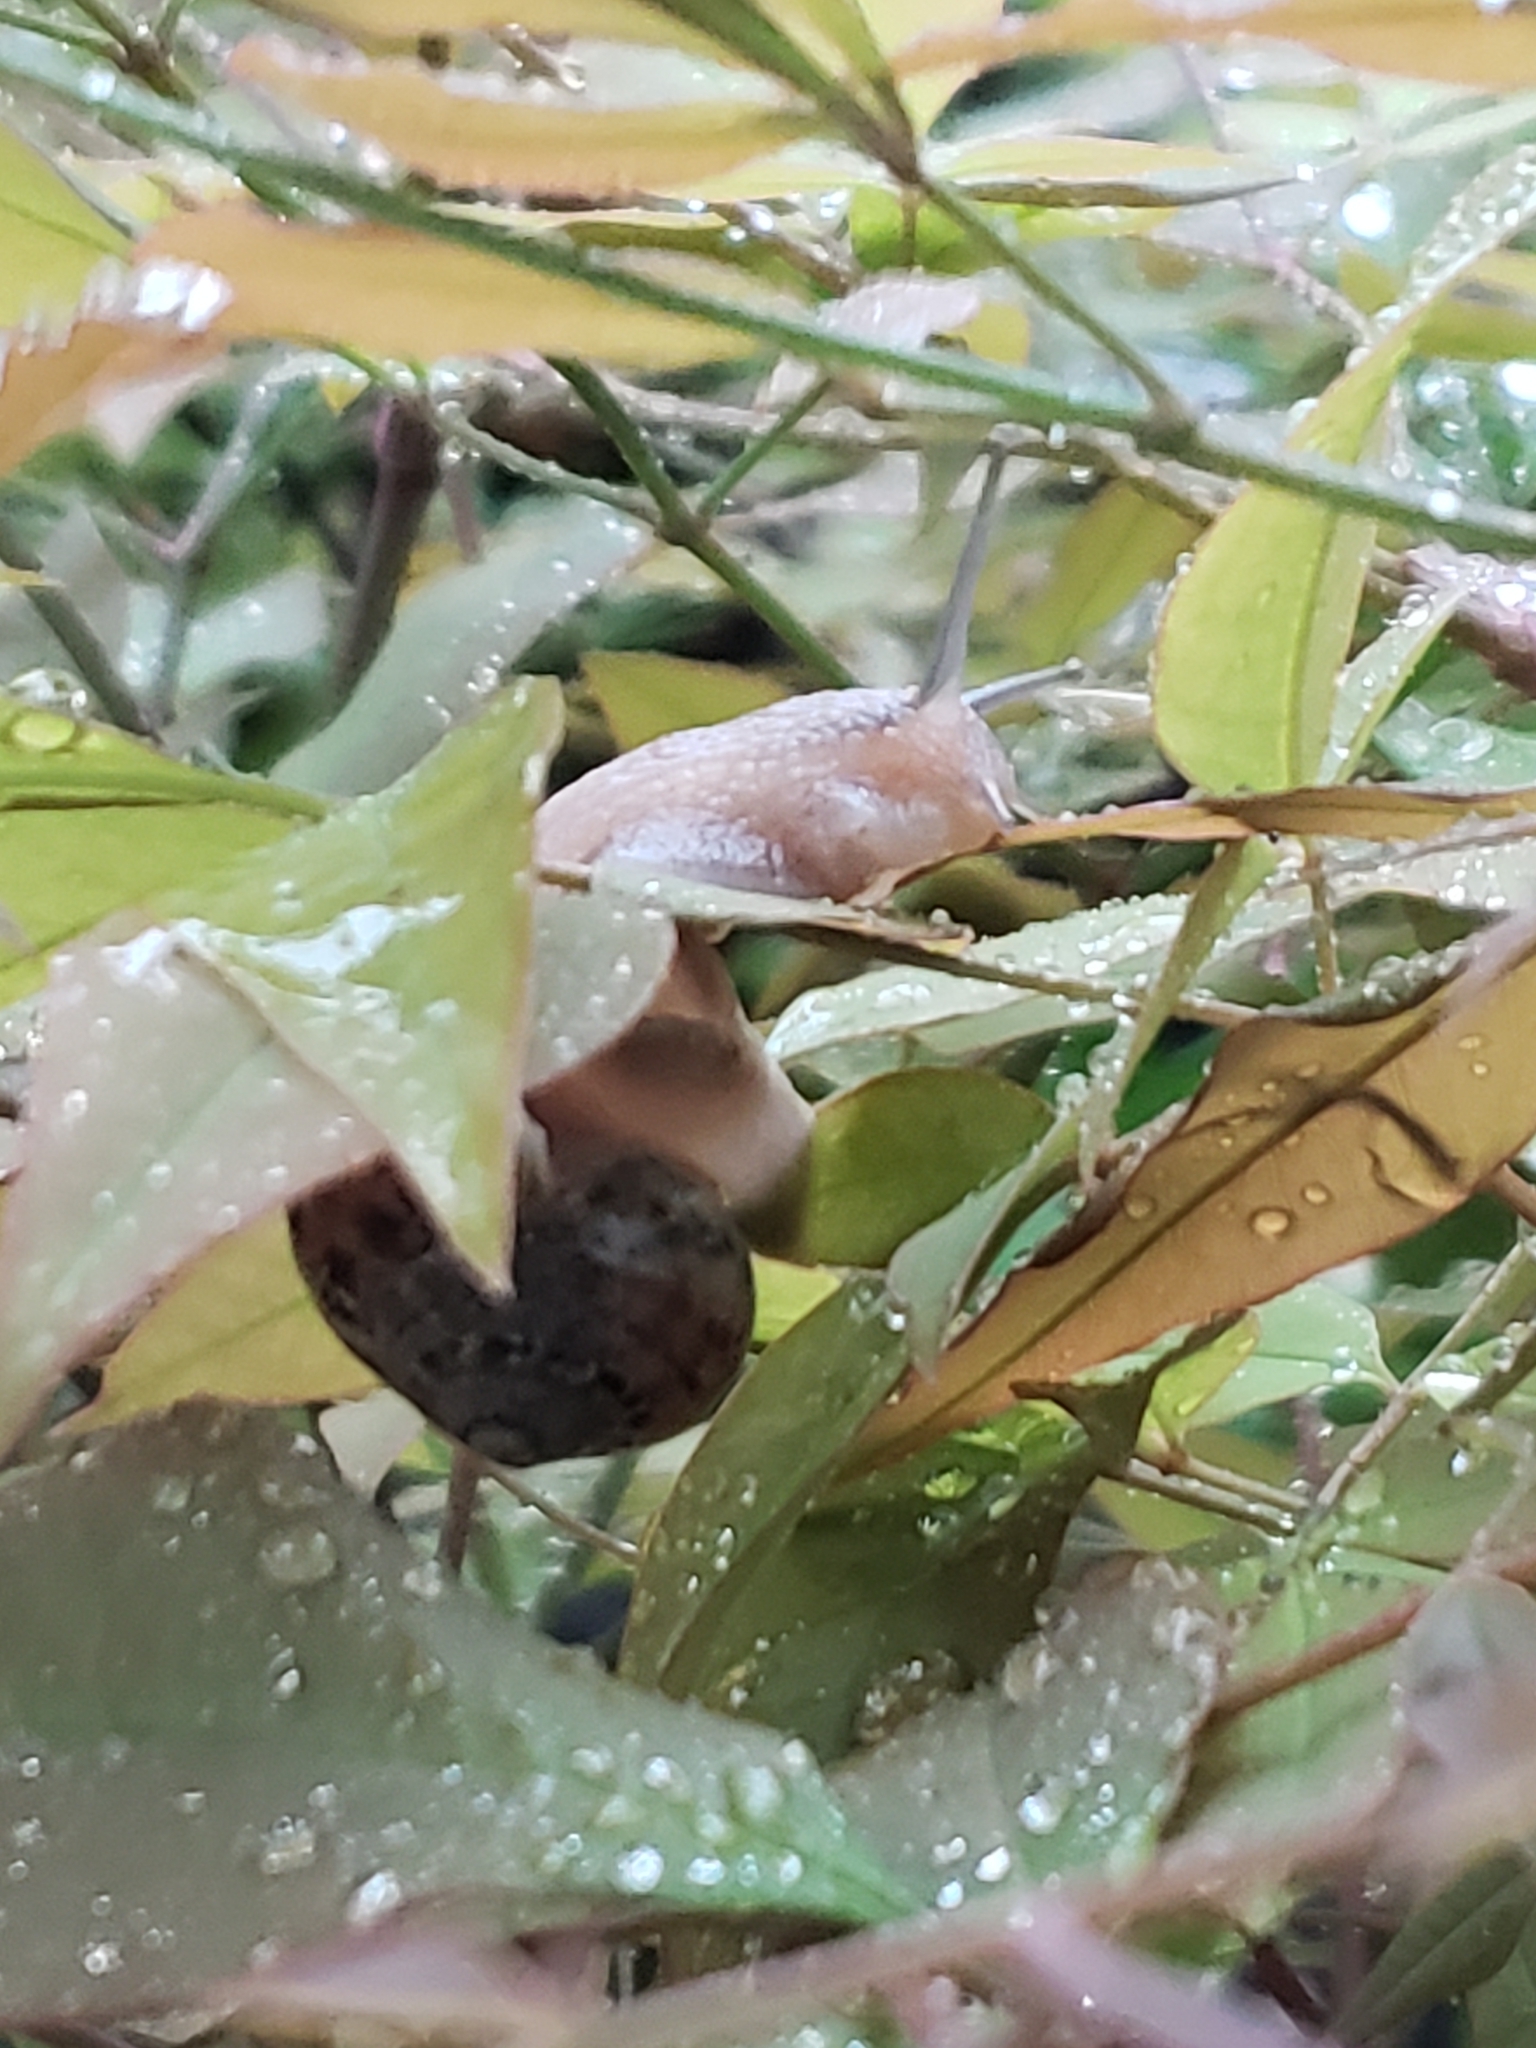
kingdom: Animalia
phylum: Mollusca
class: Gastropoda
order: Stylommatophora
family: Helicidae
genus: Cornu
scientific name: Cornu aspersum
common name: Brown garden snail
